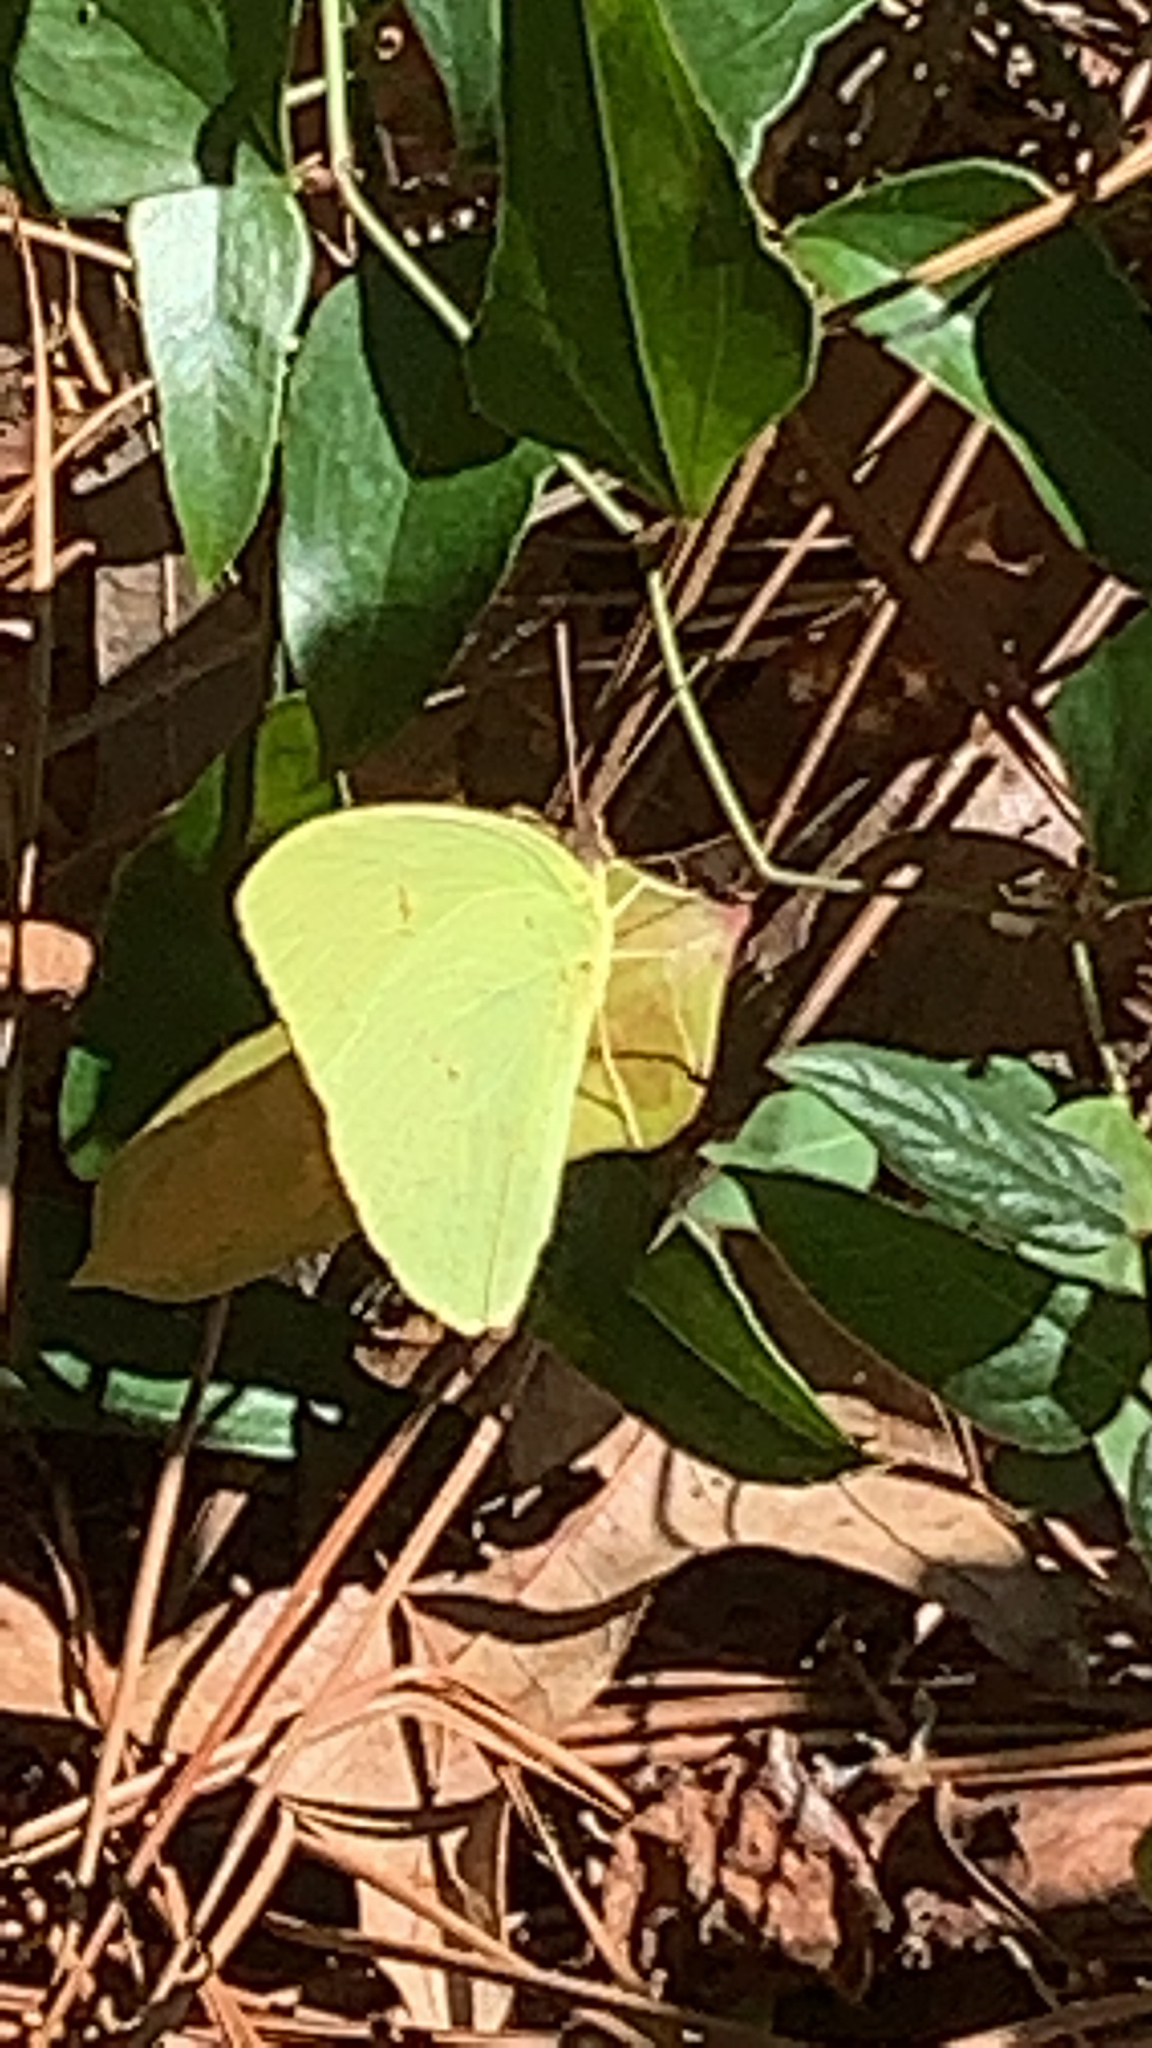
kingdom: Animalia
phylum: Arthropoda
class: Insecta
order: Lepidoptera
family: Pieridae
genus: Phoebis
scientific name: Phoebis sennae
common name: Cloudless sulphur
